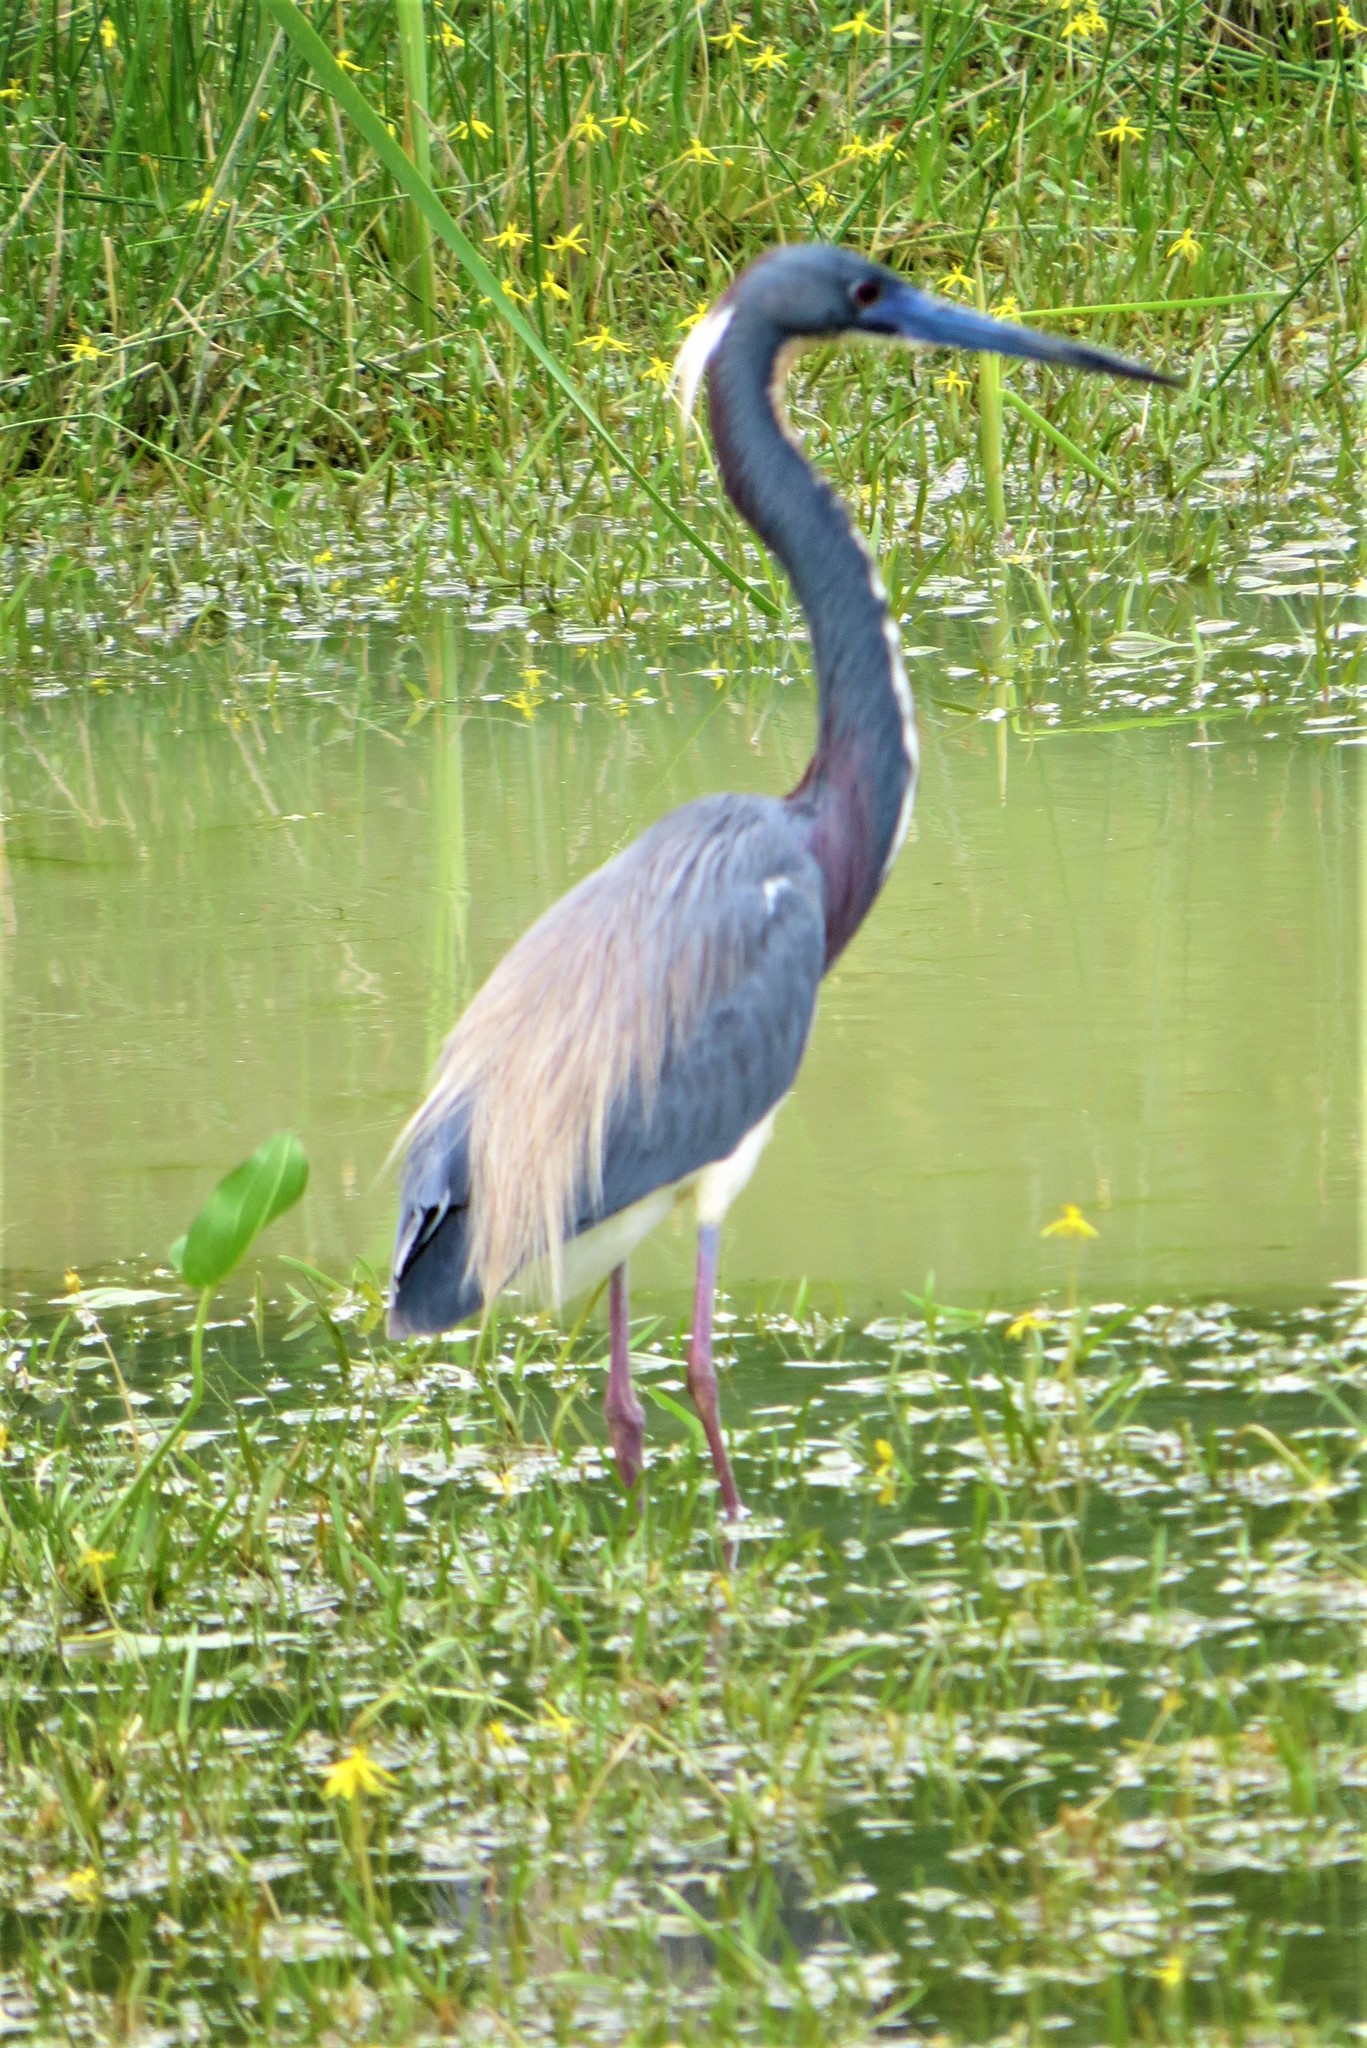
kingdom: Animalia
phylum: Chordata
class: Aves
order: Pelecaniformes
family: Ardeidae
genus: Egretta
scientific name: Egretta tricolor
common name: Tricolored heron
